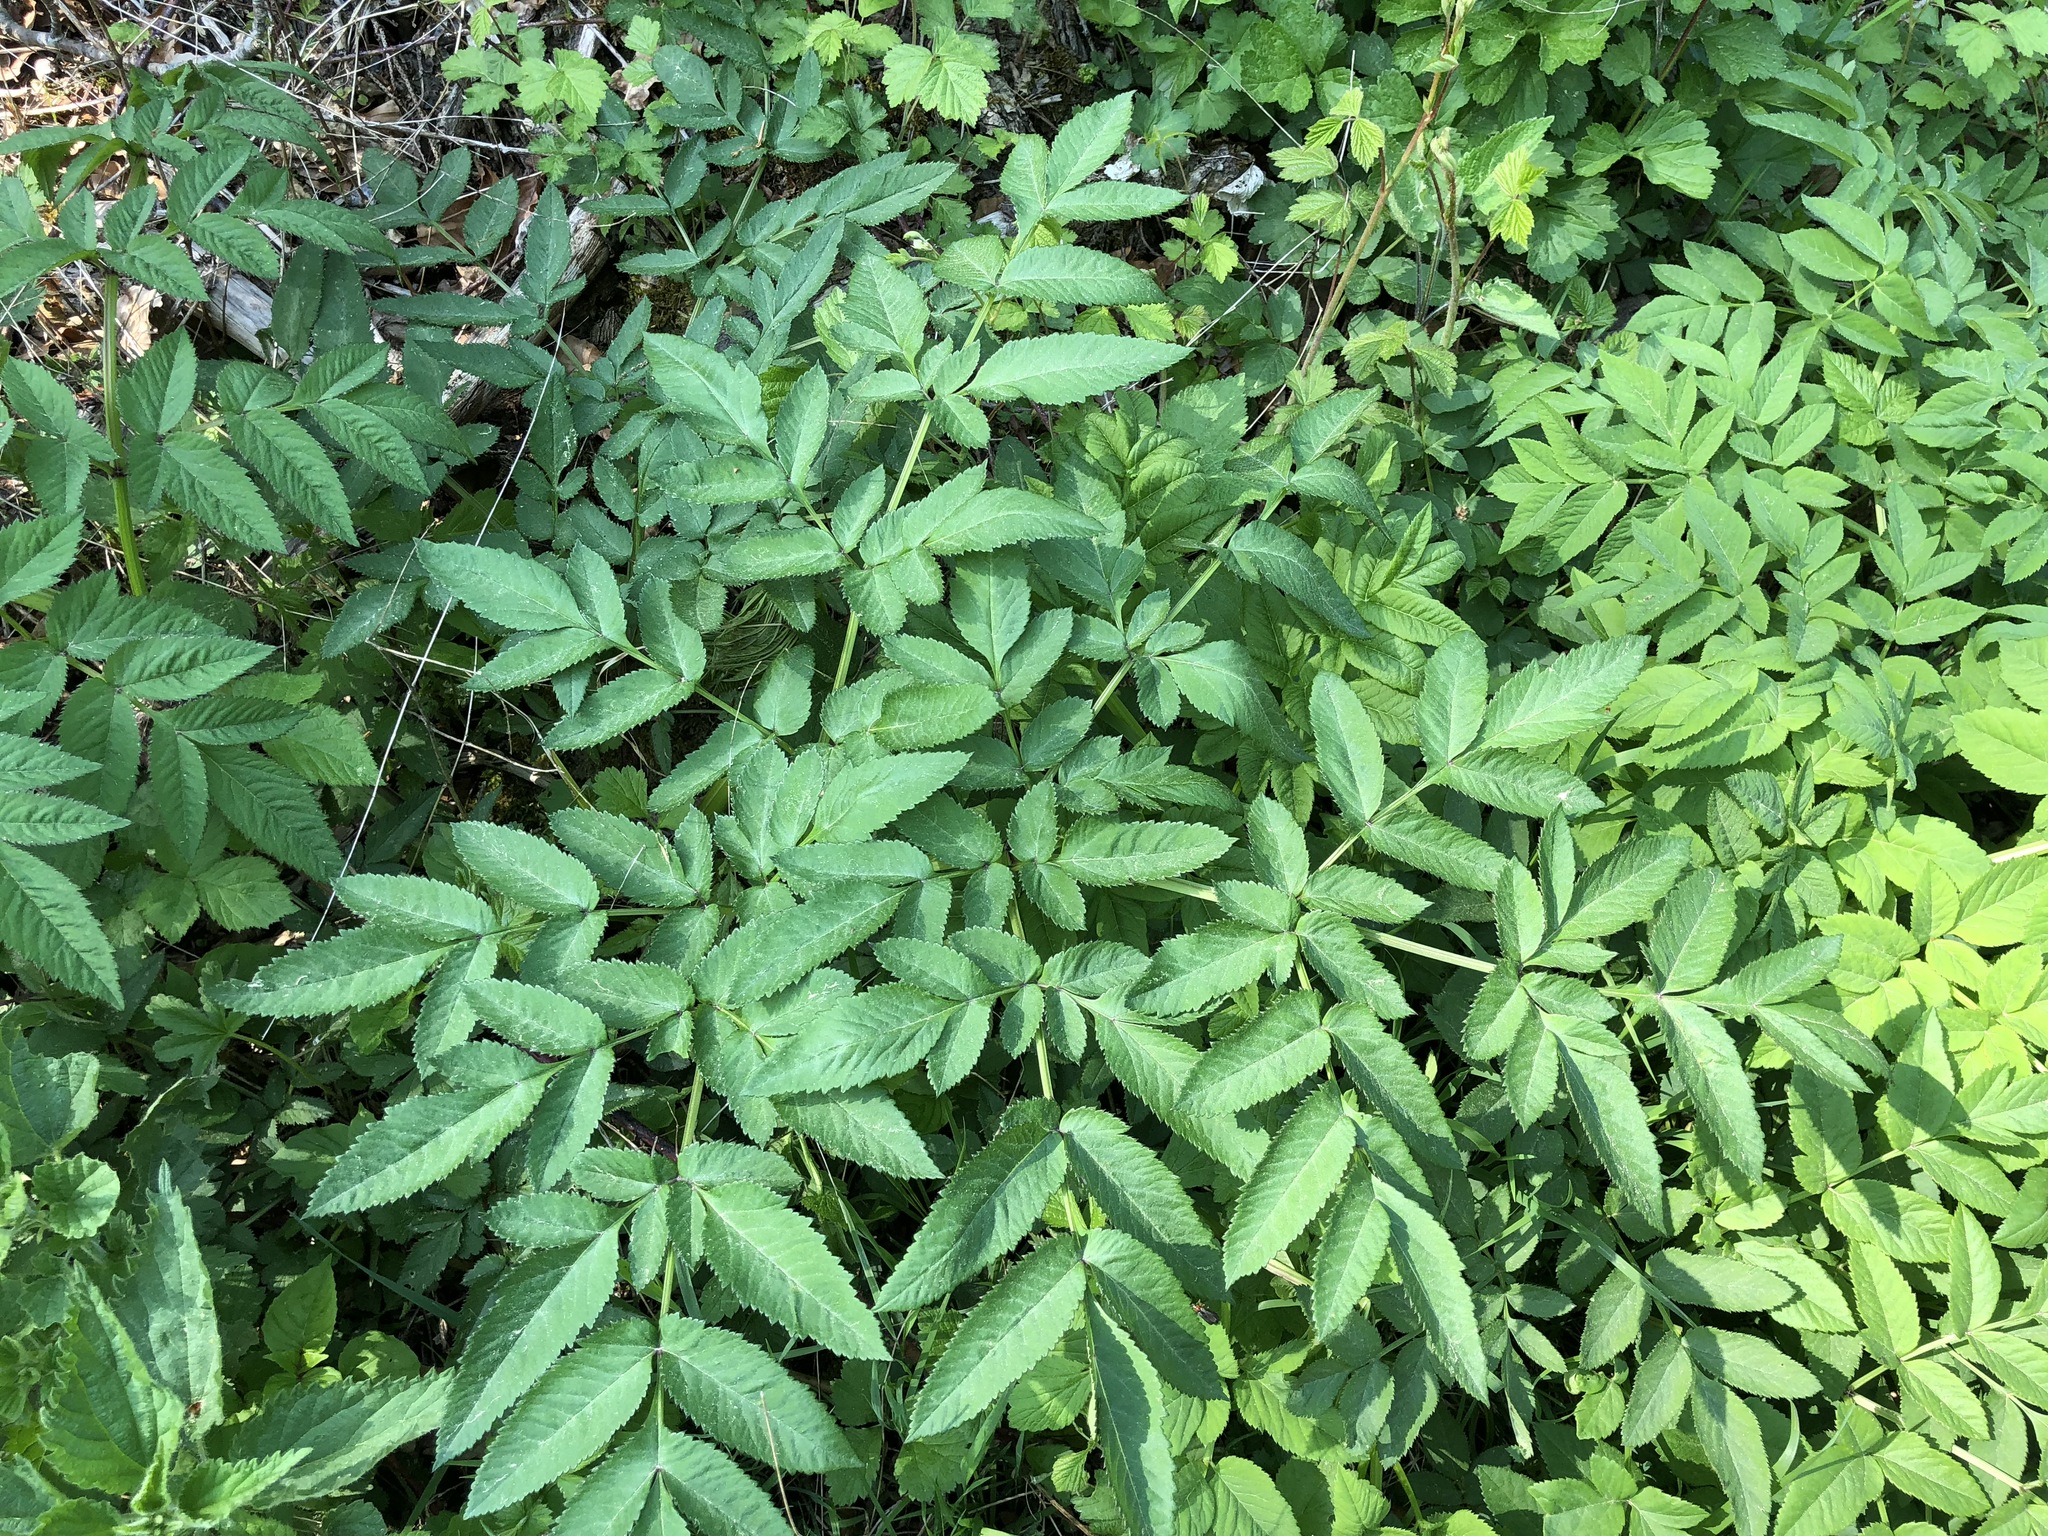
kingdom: Plantae
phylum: Tracheophyta
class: Magnoliopsida
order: Apiales
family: Apiaceae
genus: Angelica
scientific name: Angelica sylvestris
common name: Wild angelica
